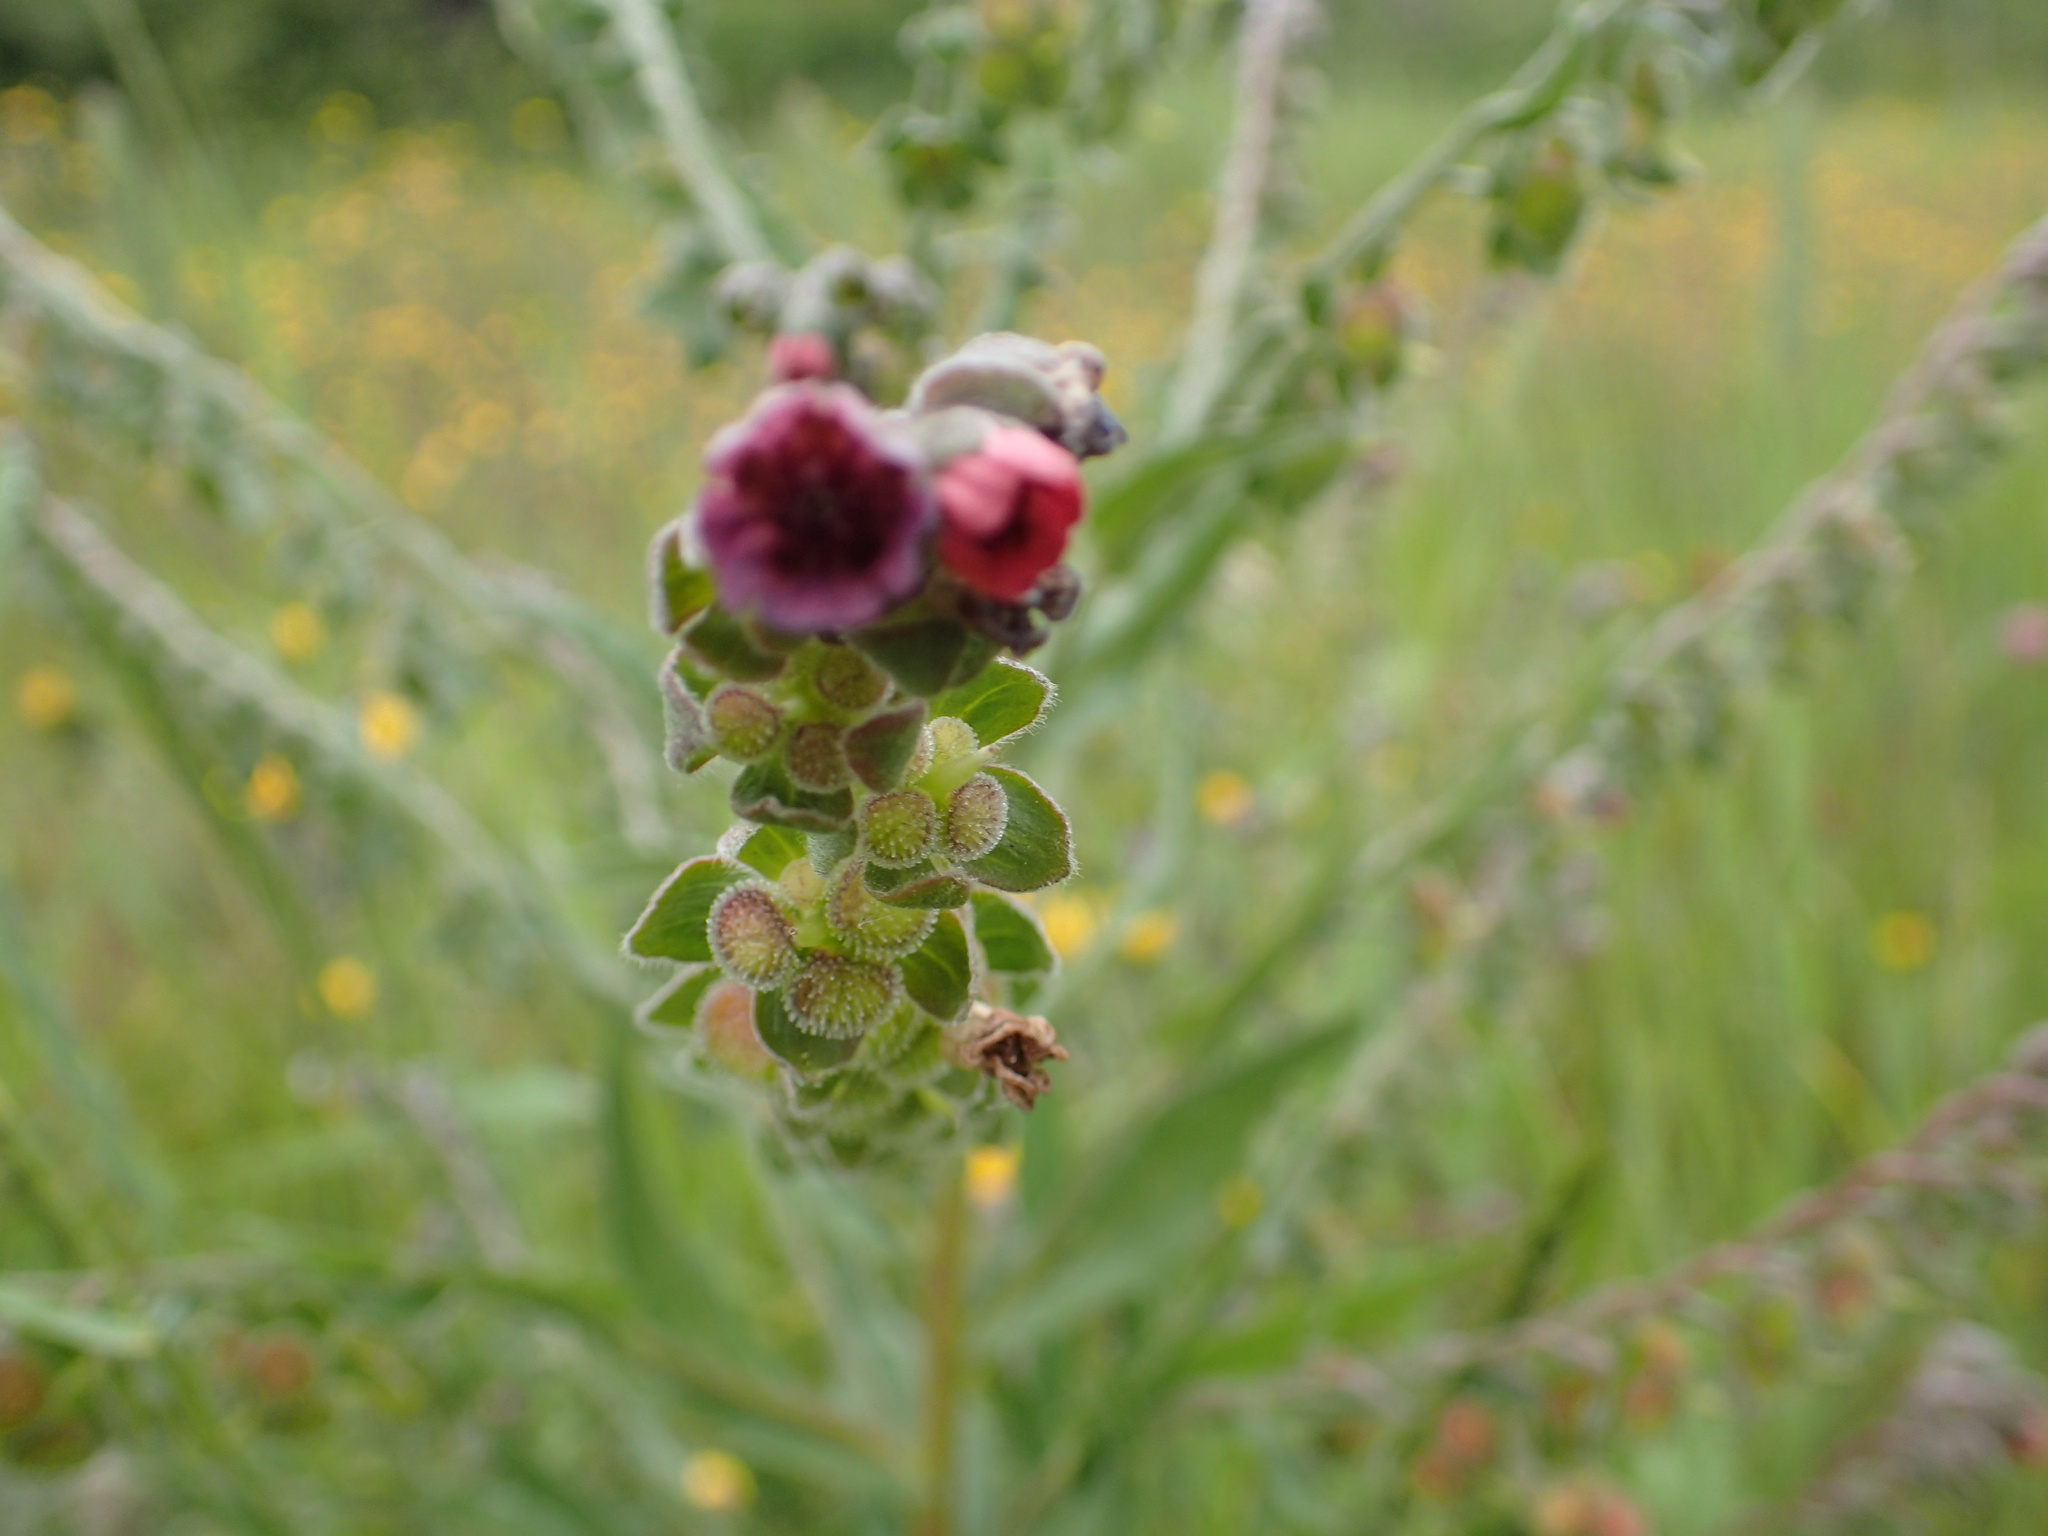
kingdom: Plantae
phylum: Tracheophyta
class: Magnoliopsida
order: Boraginales
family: Boraginaceae
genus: Cynoglossum
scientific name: Cynoglossum officinale
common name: Hound's-tongue
